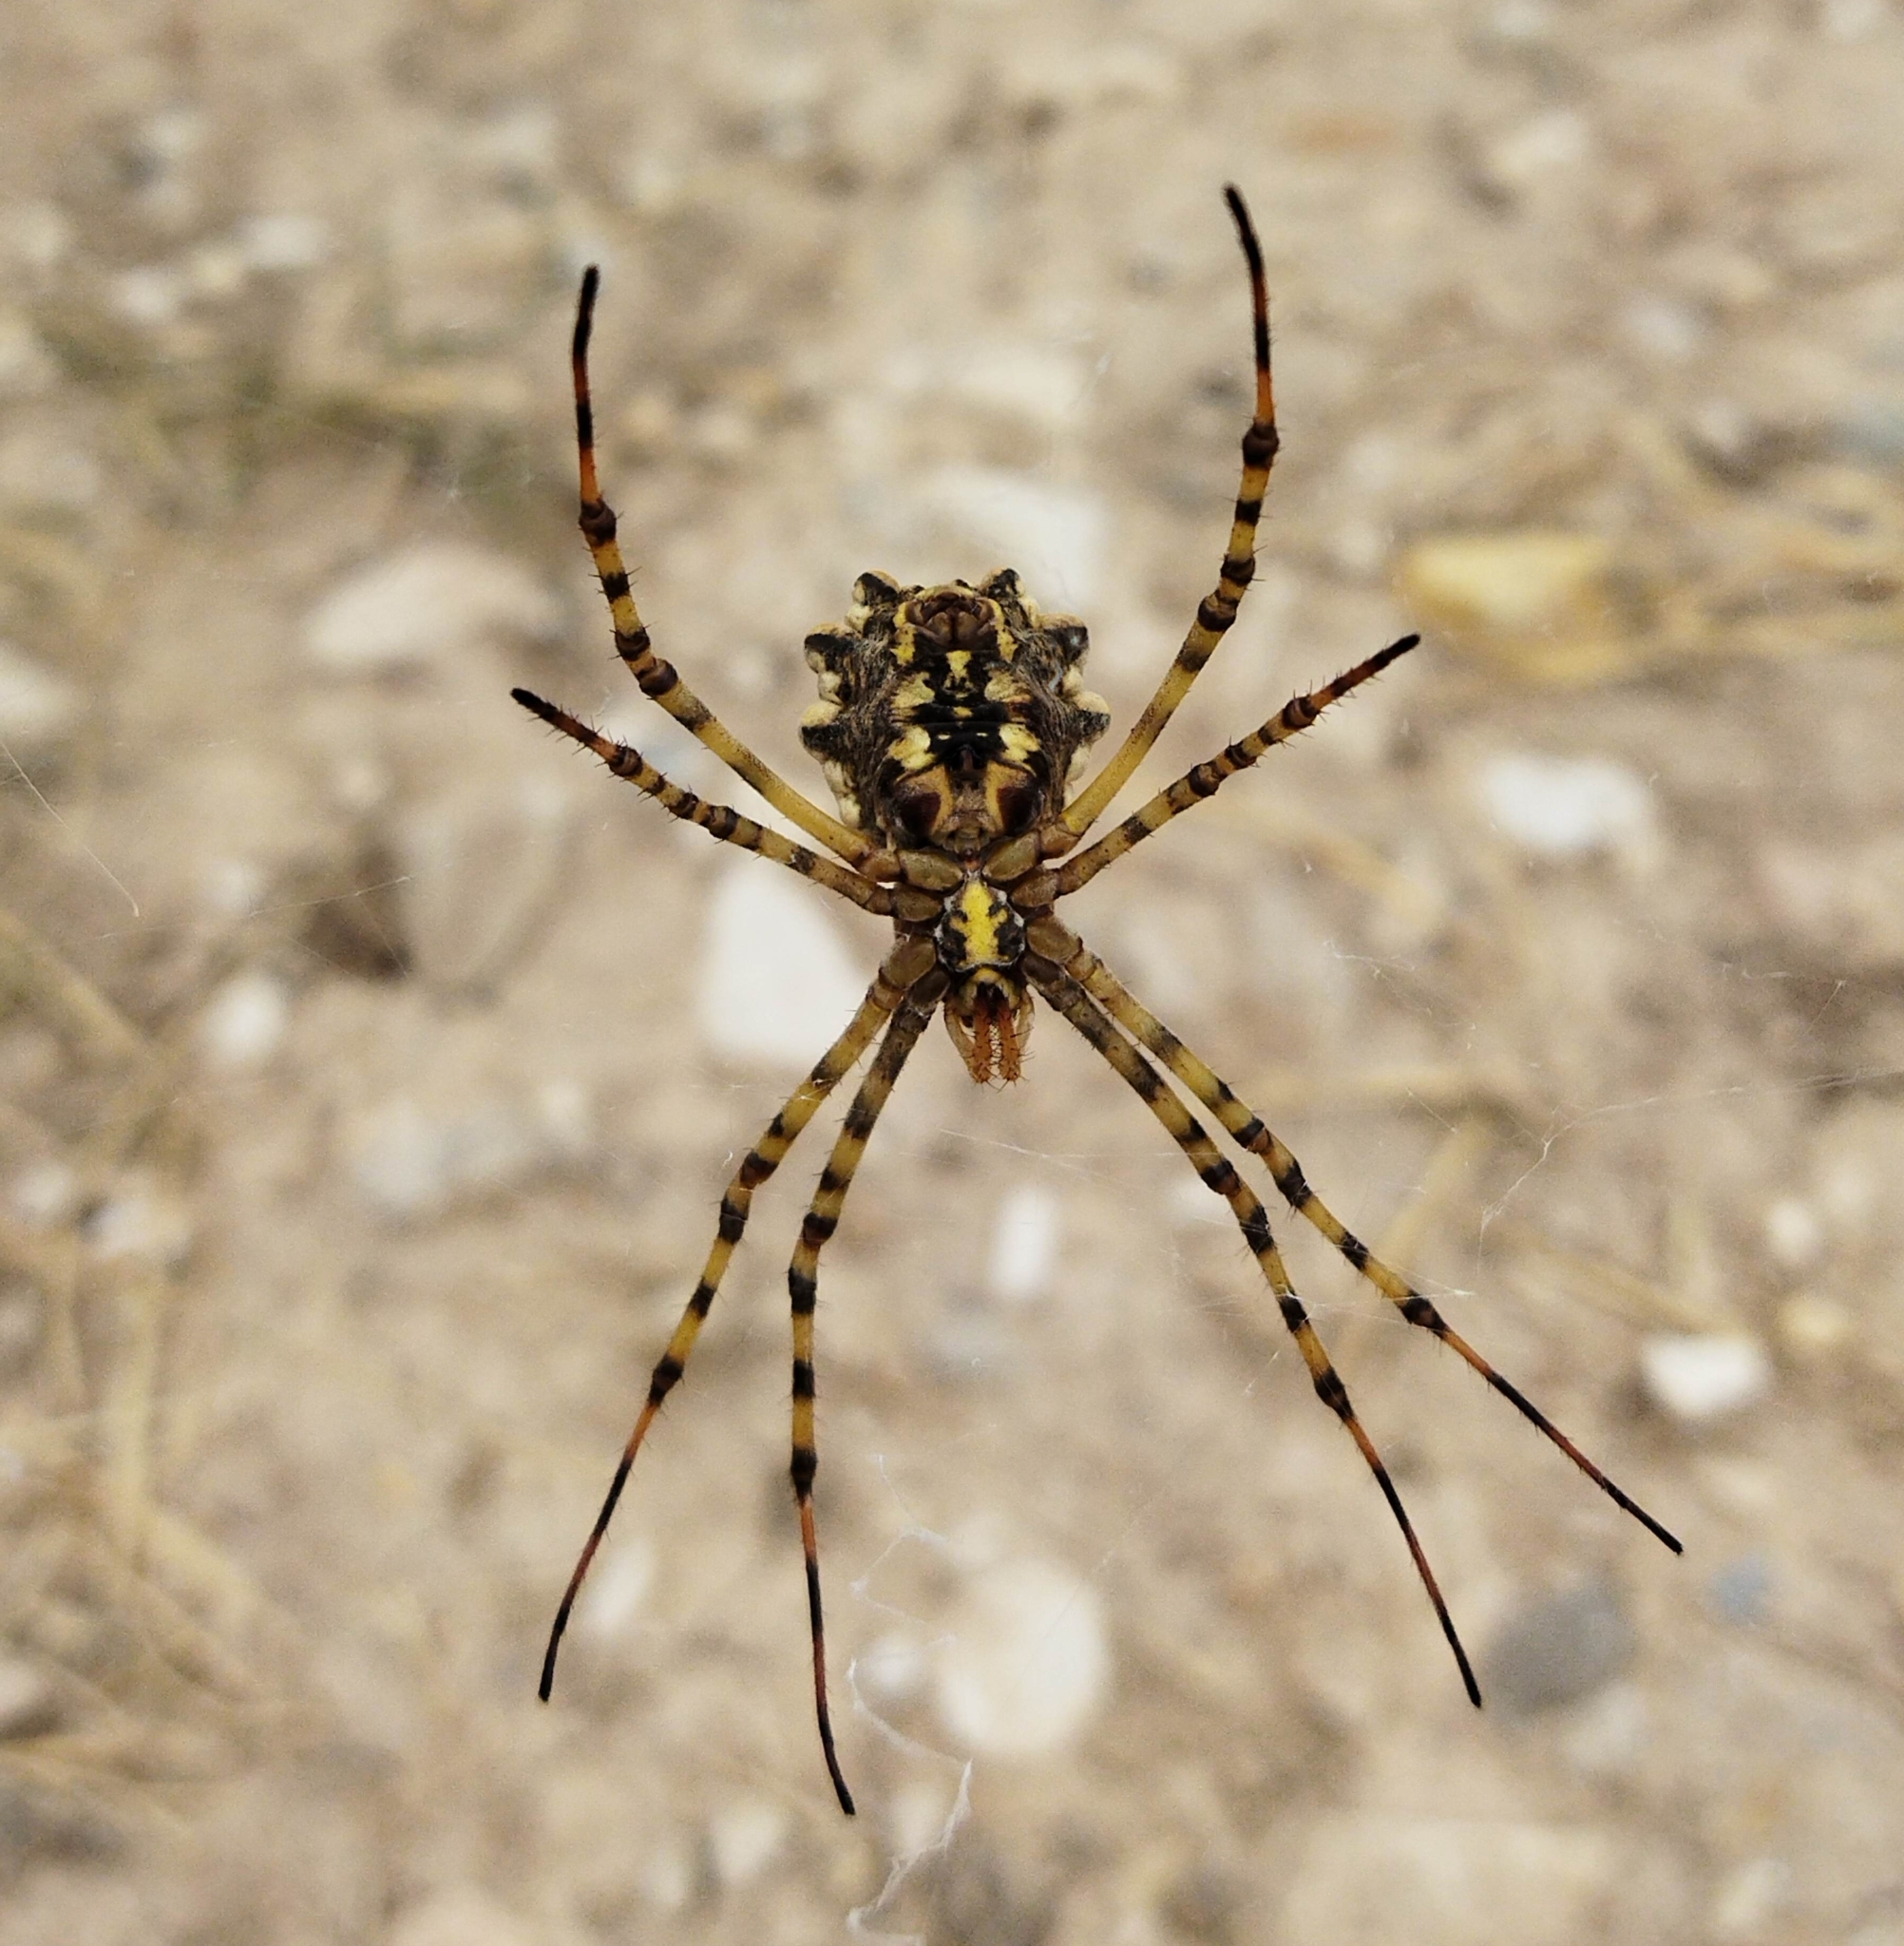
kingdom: Animalia
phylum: Arthropoda
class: Arachnida
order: Araneae
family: Araneidae
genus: Argiope
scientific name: Argiope lobata
